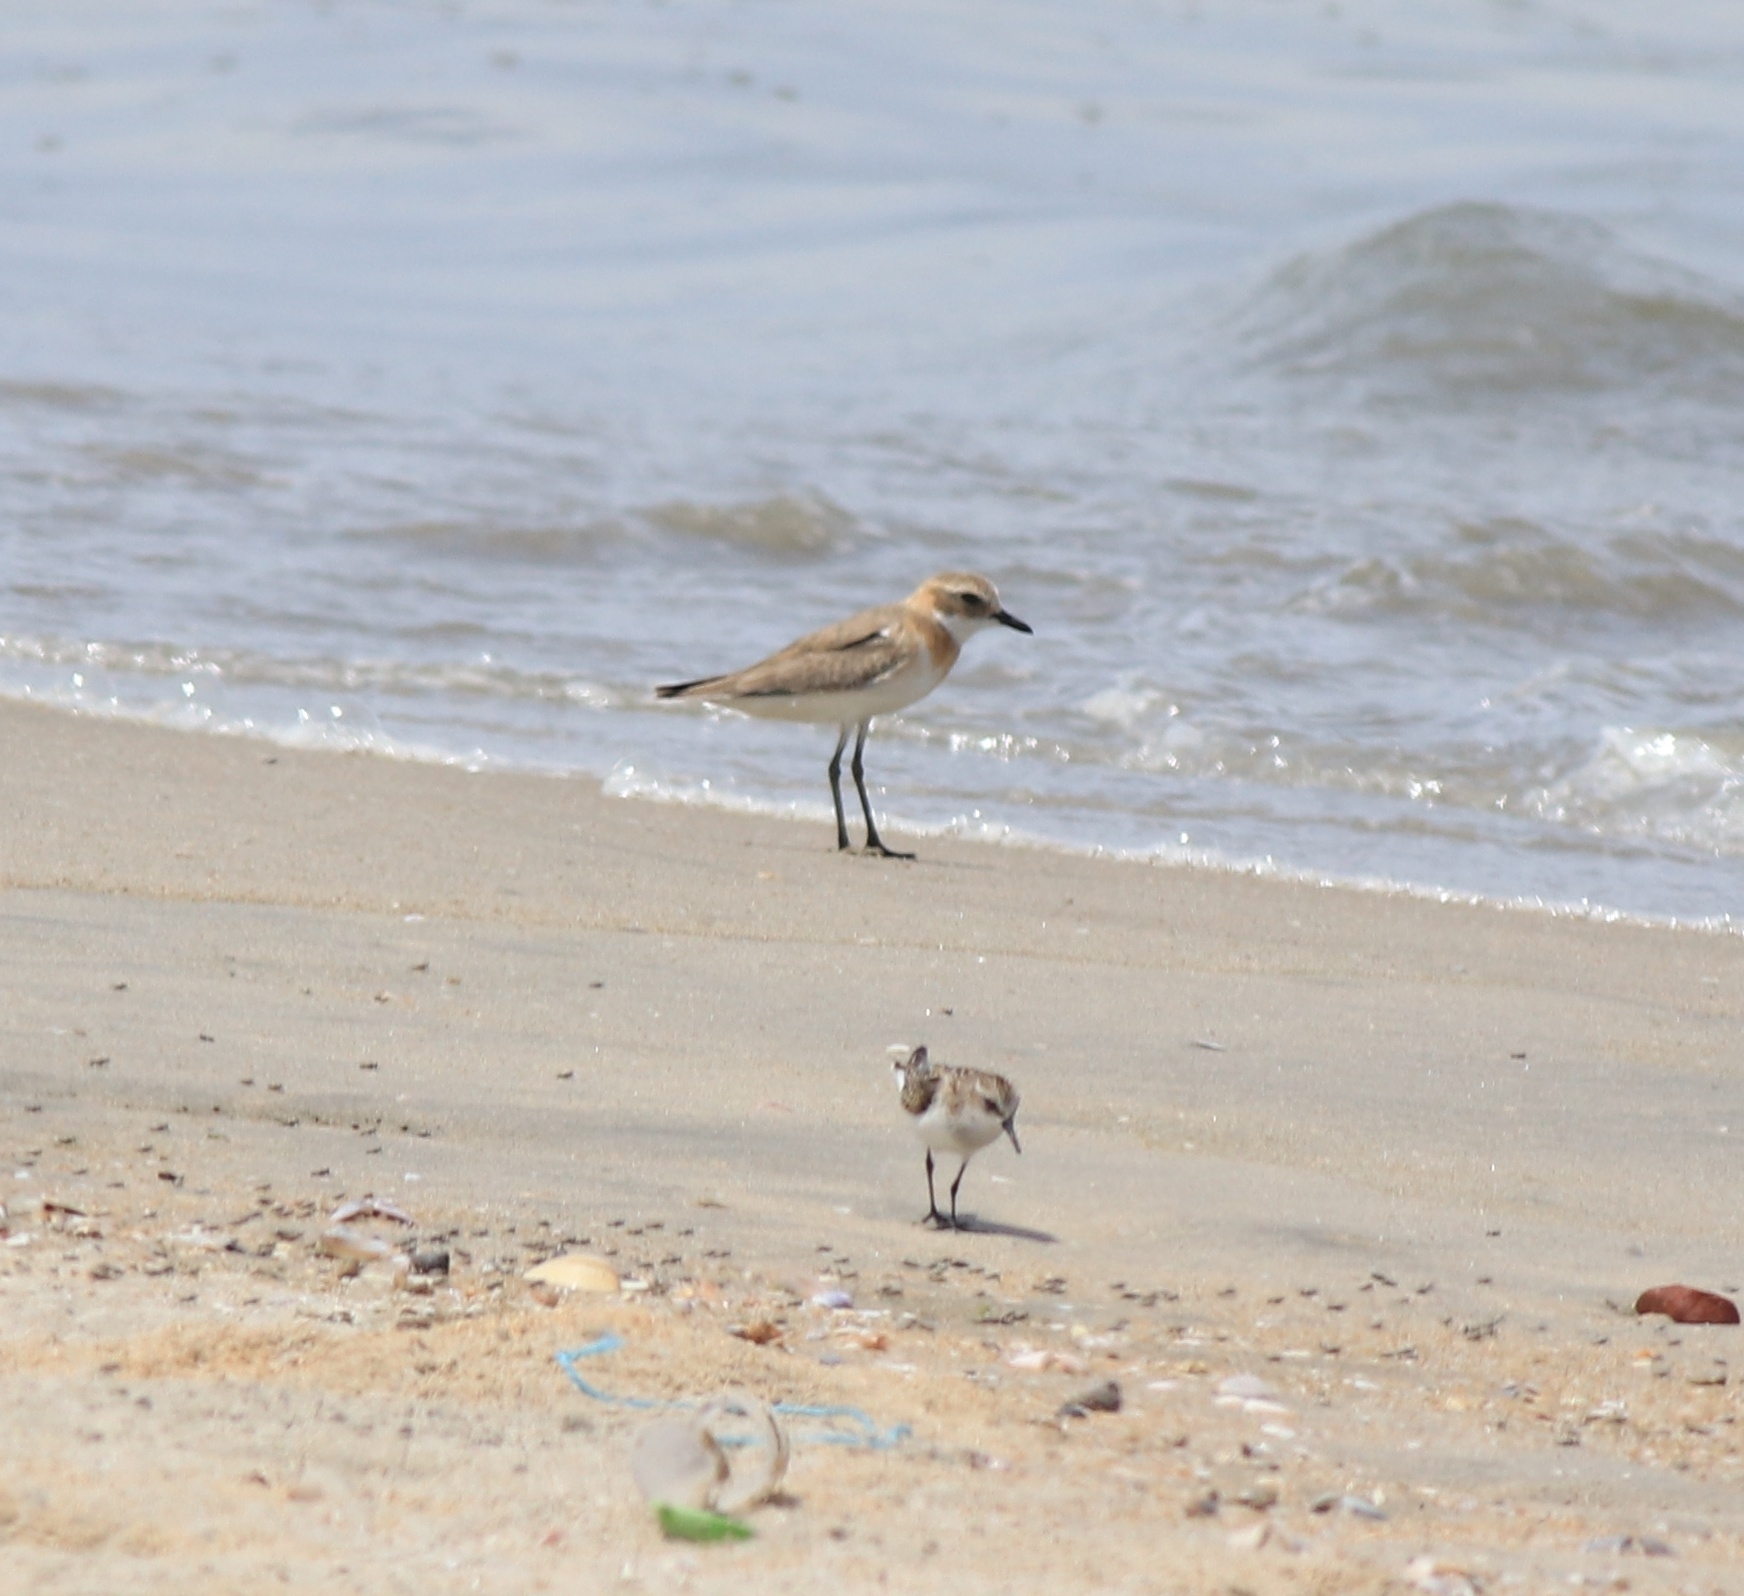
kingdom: Animalia
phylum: Chordata
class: Aves
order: Charadriiformes
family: Charadriidae
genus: Anarhynchus
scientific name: Anarhynchus
